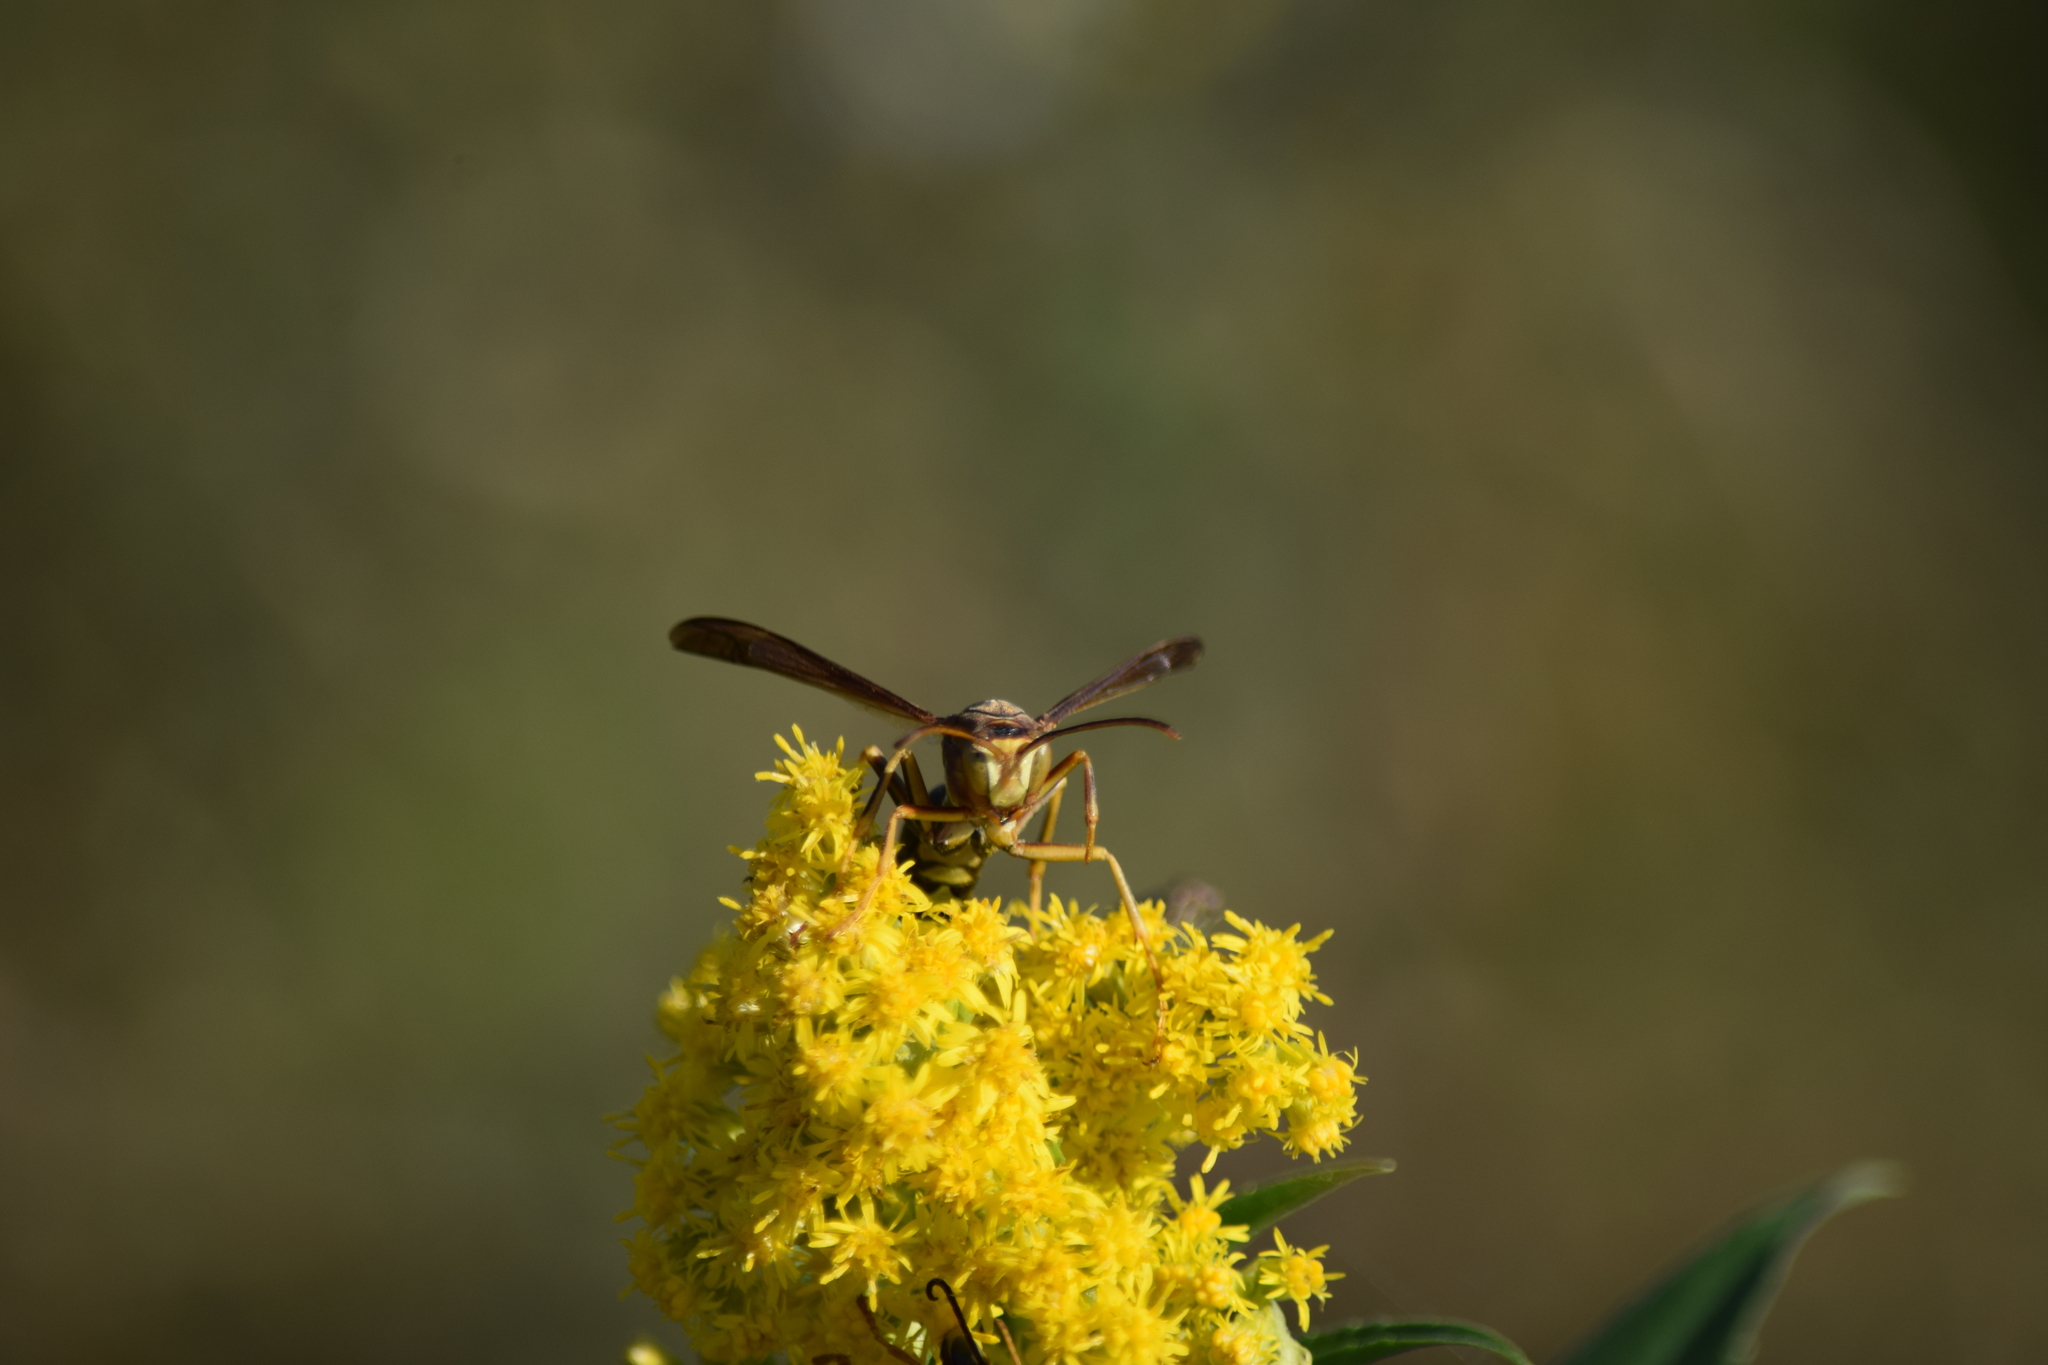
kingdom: Animalia
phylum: Arthropoda
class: Insecta
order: Hymenoptera
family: Eumenidae
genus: Polistes
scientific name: Polistes
